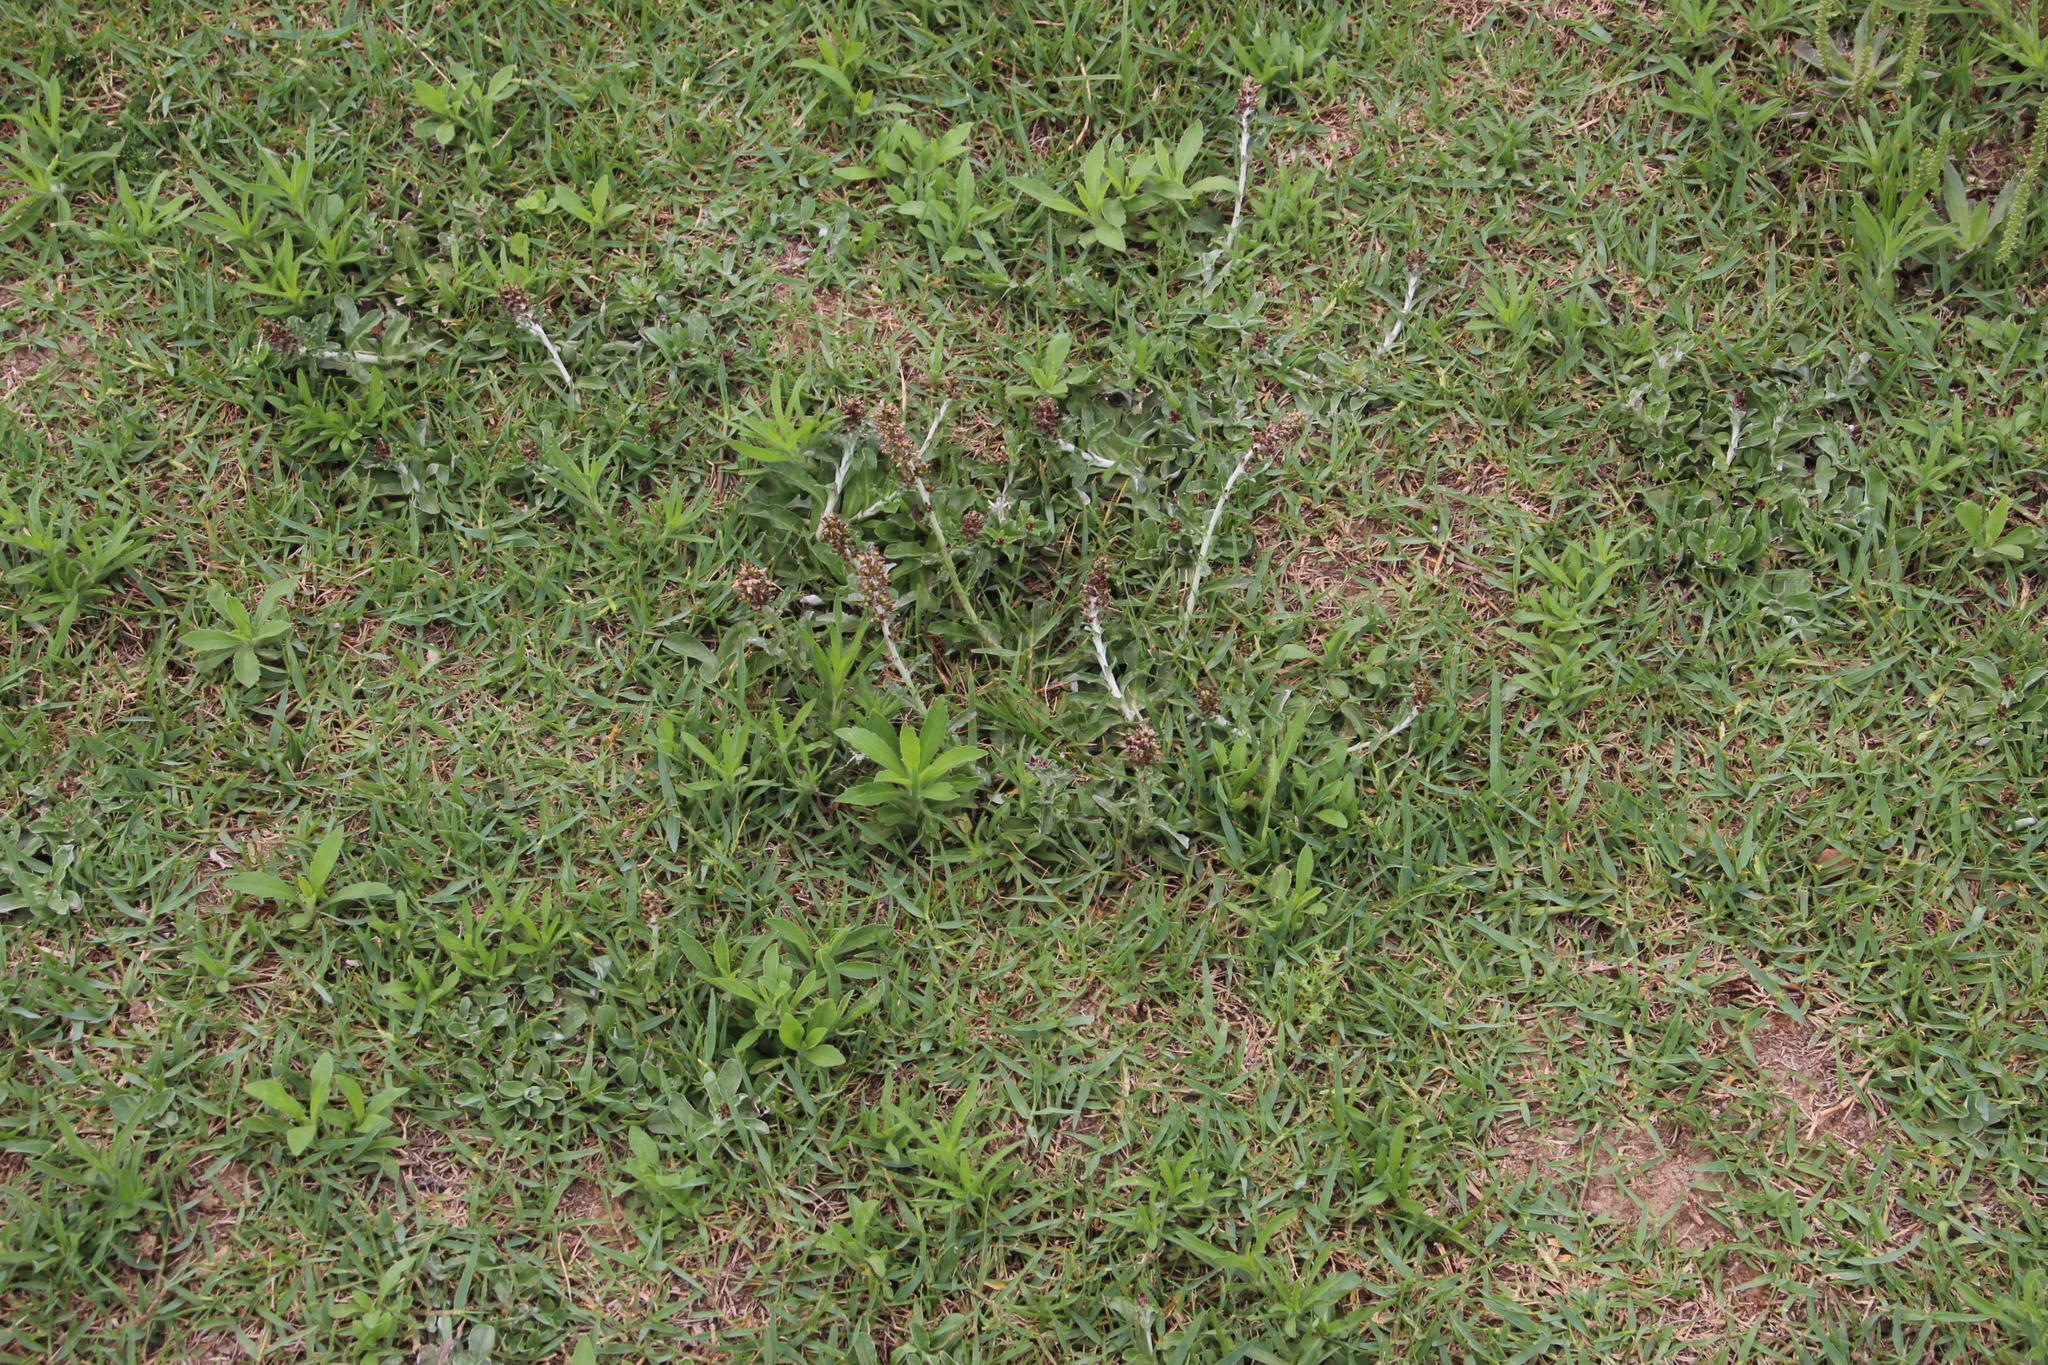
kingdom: Plantae
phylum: Tracheophyta
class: Magnoliopsida
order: Asterales
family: Asteraceae
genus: Gamochaeta
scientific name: Gamochaeta americana
